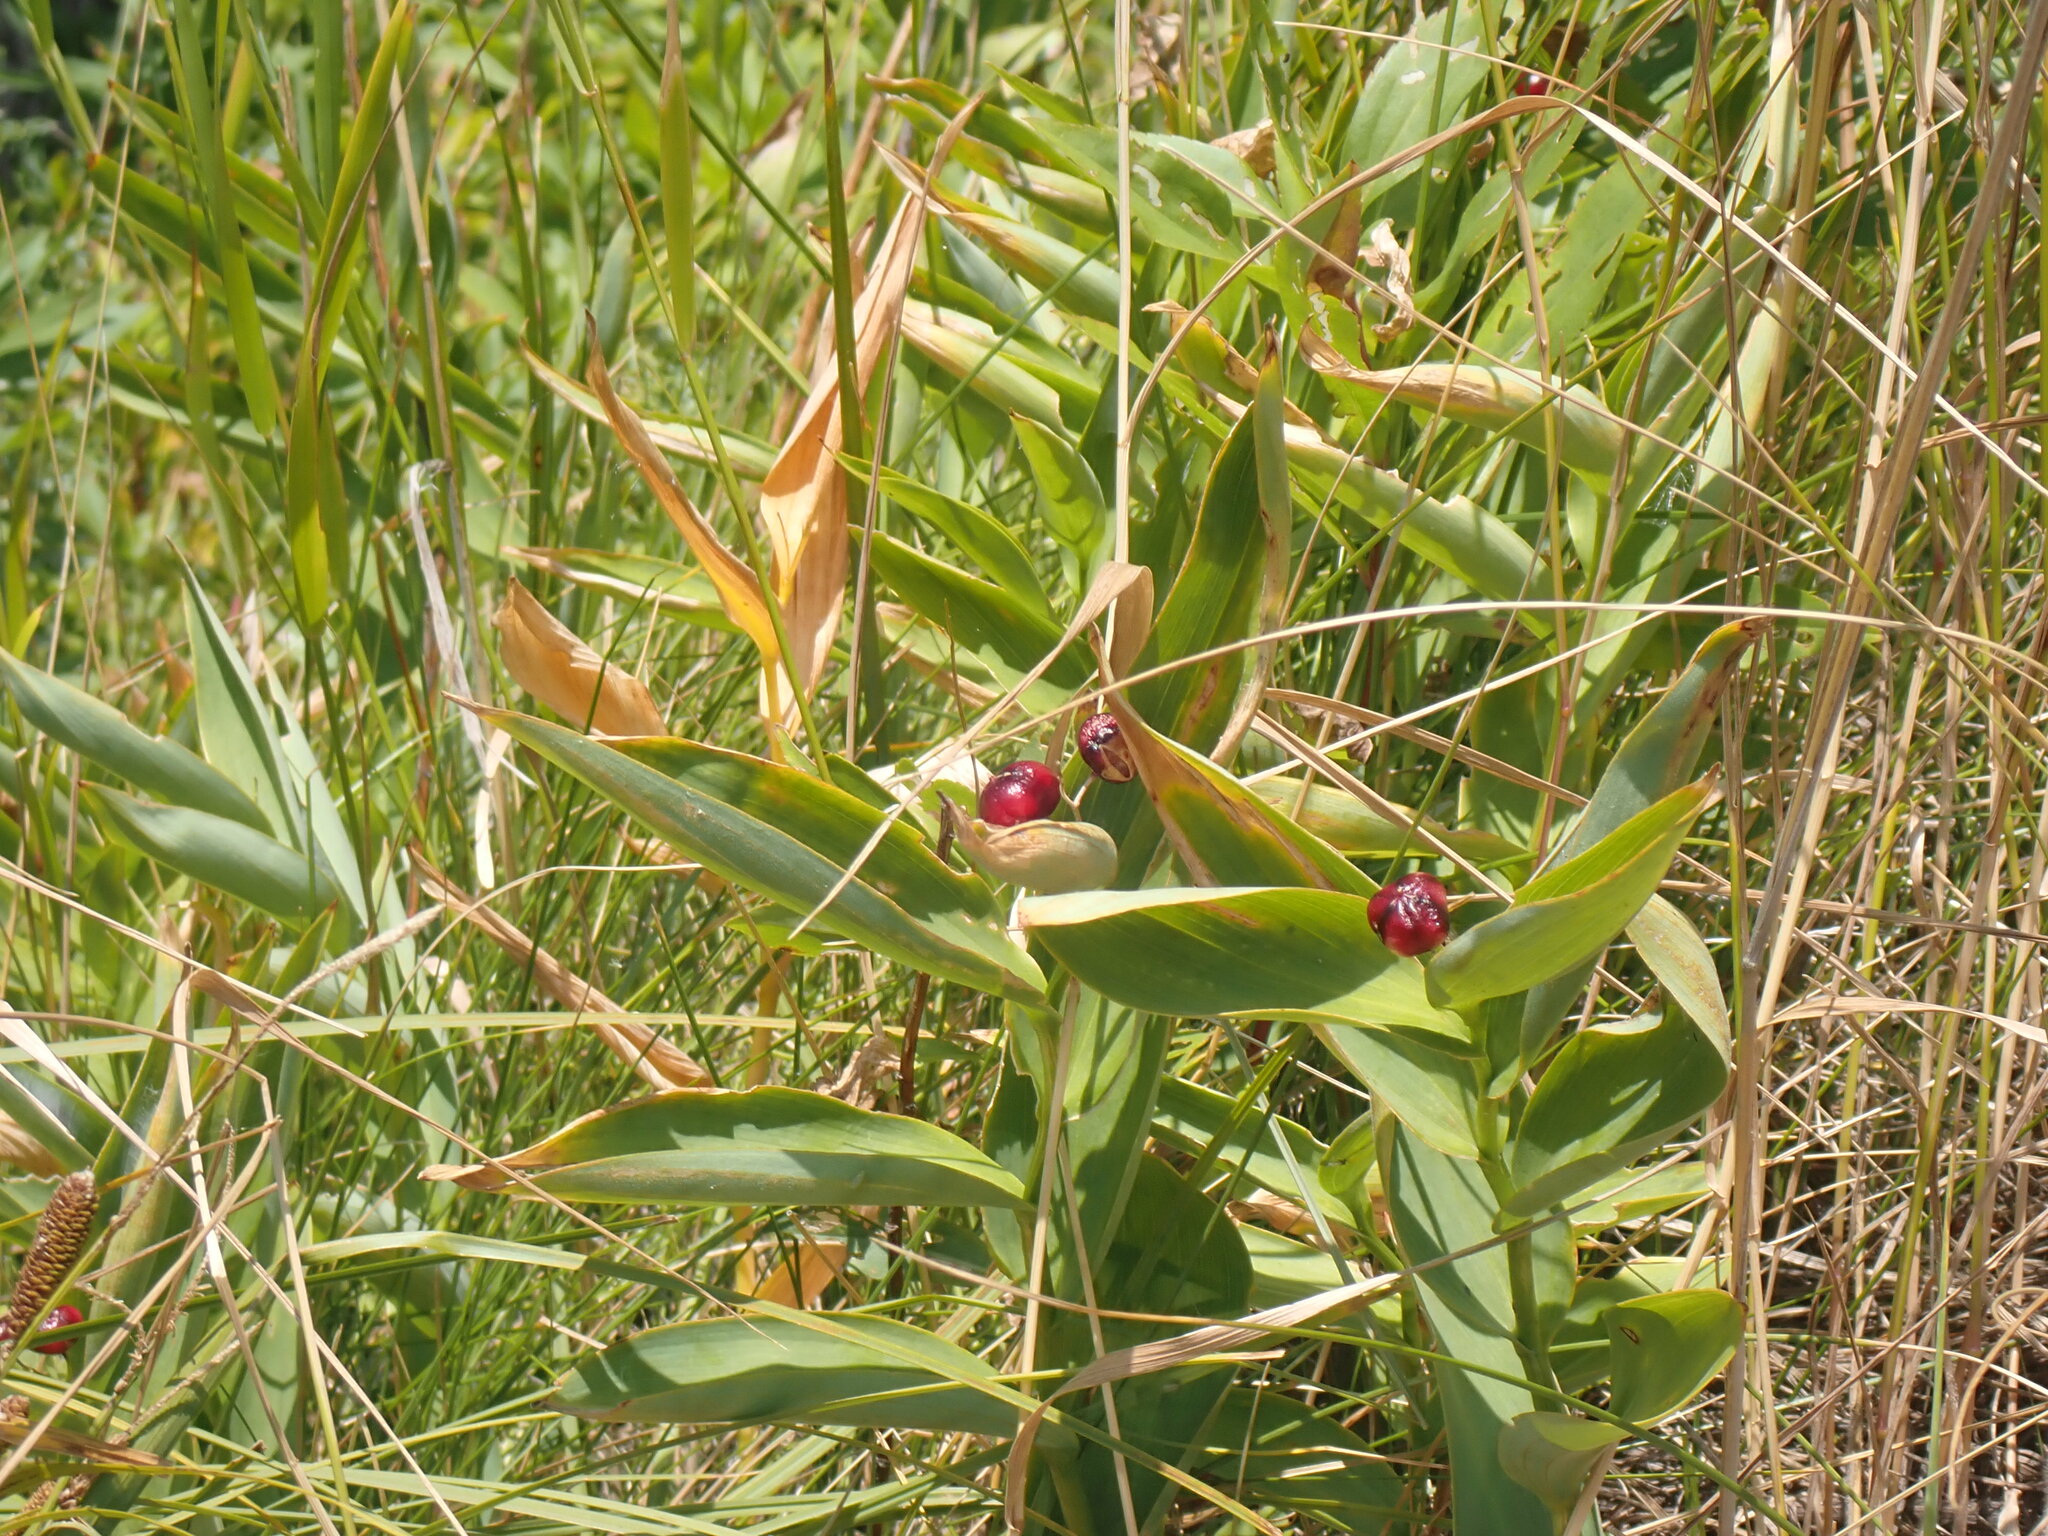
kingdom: Plantae
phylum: Tracheophyta
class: Liliopsida
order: Asparagales
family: Asparagaceae
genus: Maianthemum
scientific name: Maianthemum stellatum
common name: Little false solomon's seal
